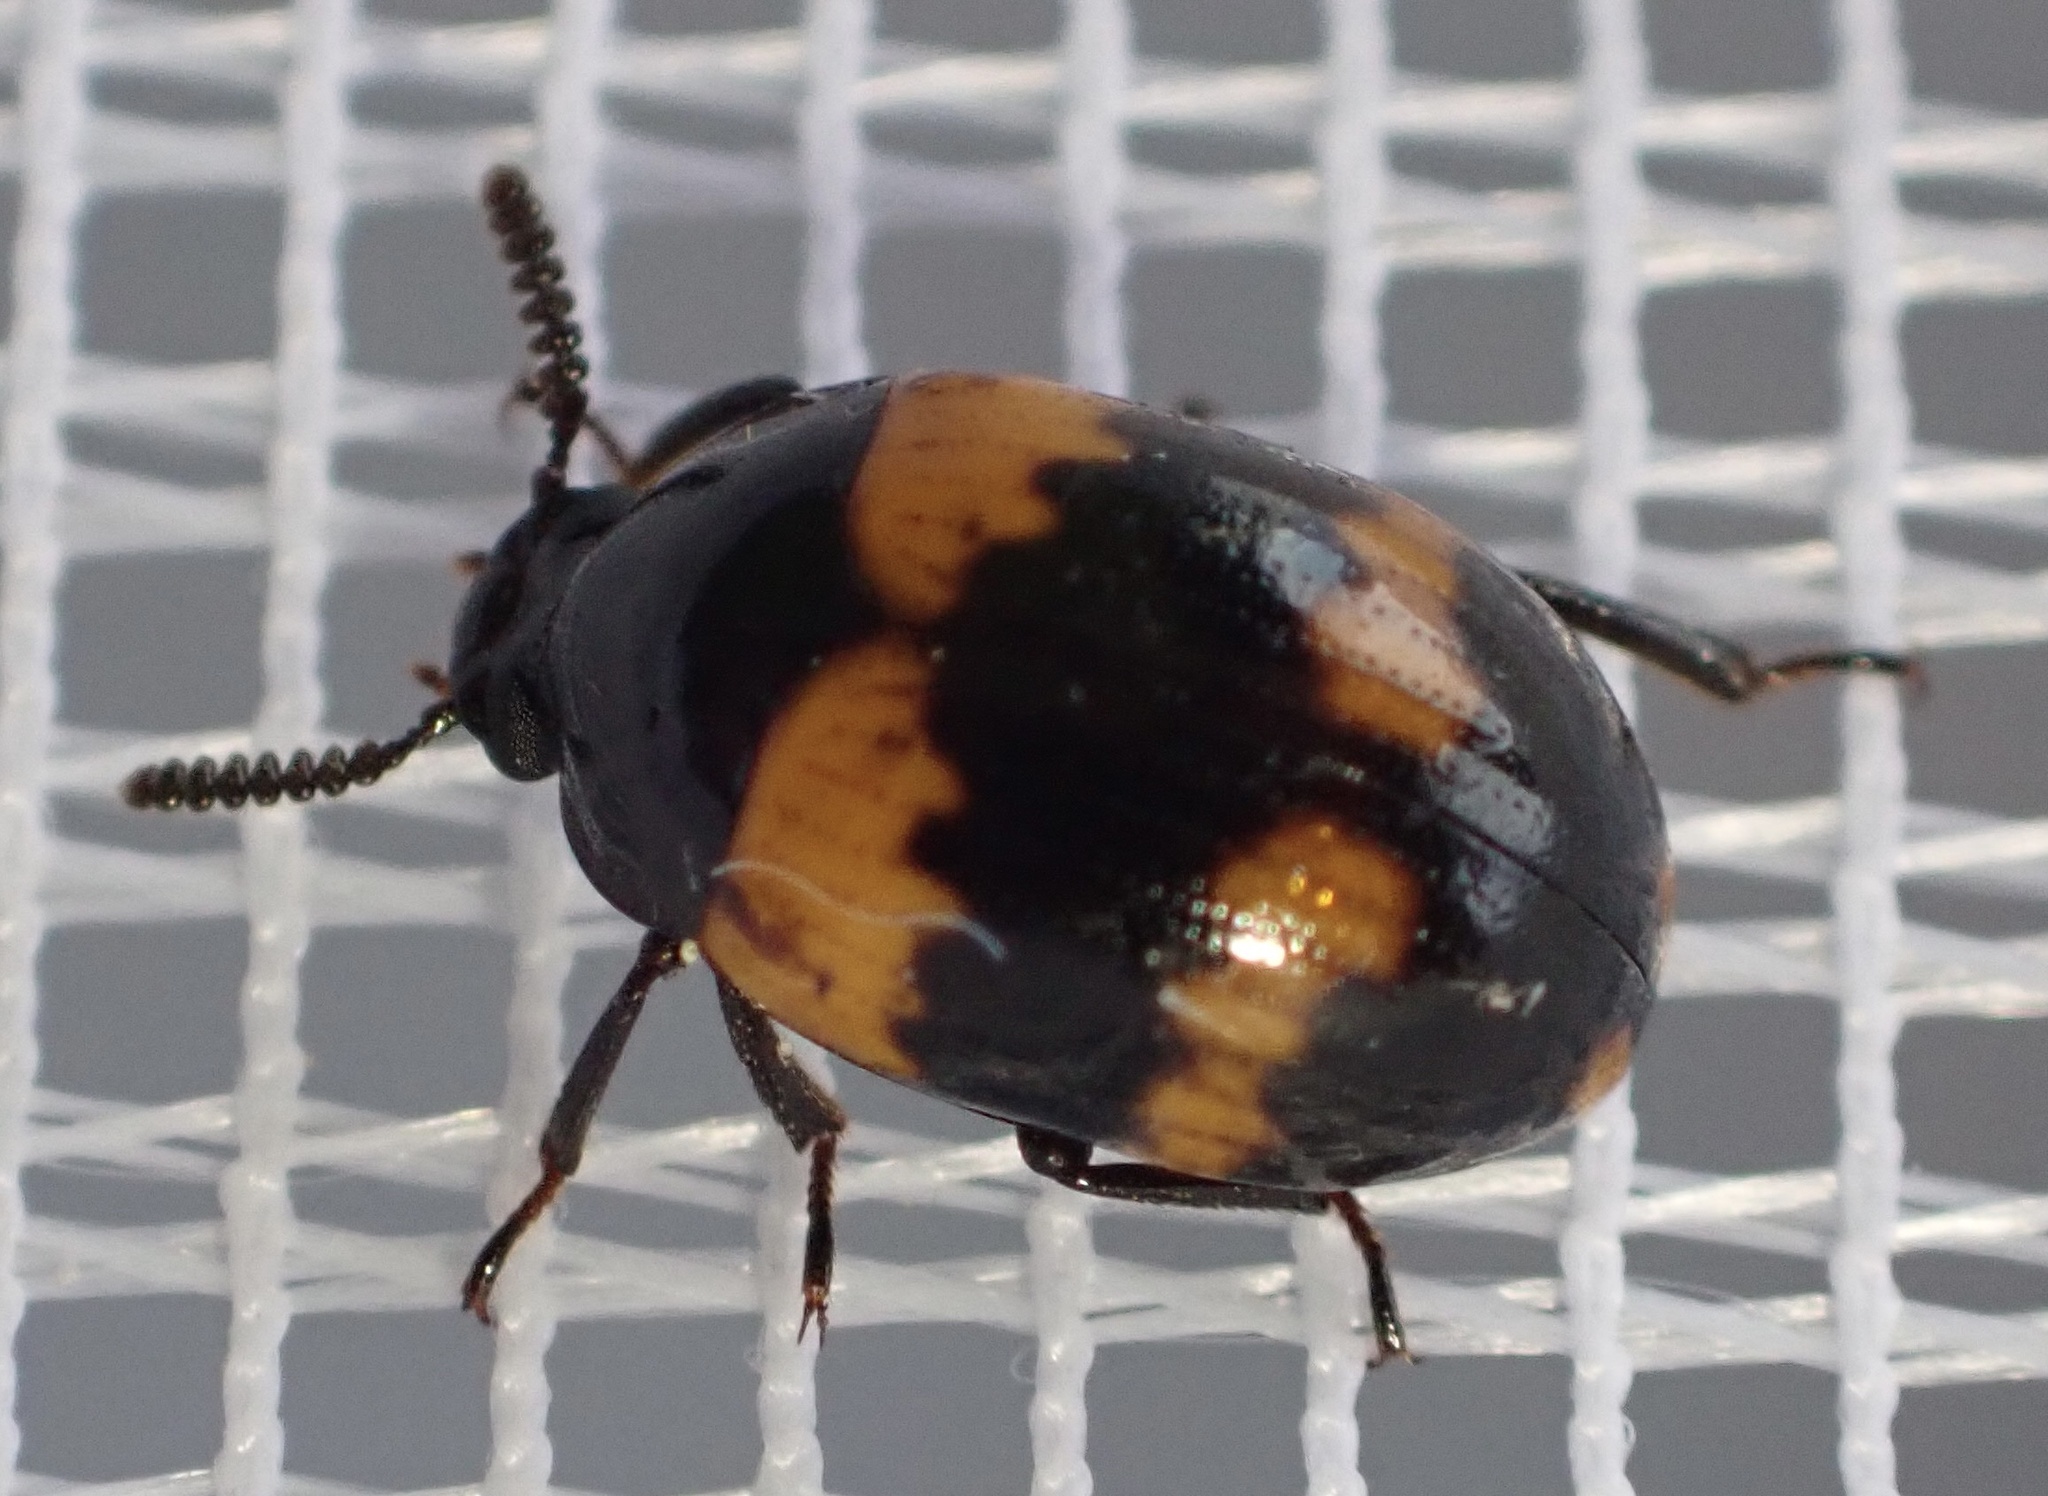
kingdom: Animalia
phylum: Arthropoda
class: Insecta
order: Coleoptera
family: Tenebrionidae
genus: Diaperis
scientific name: Diaperis boleti
